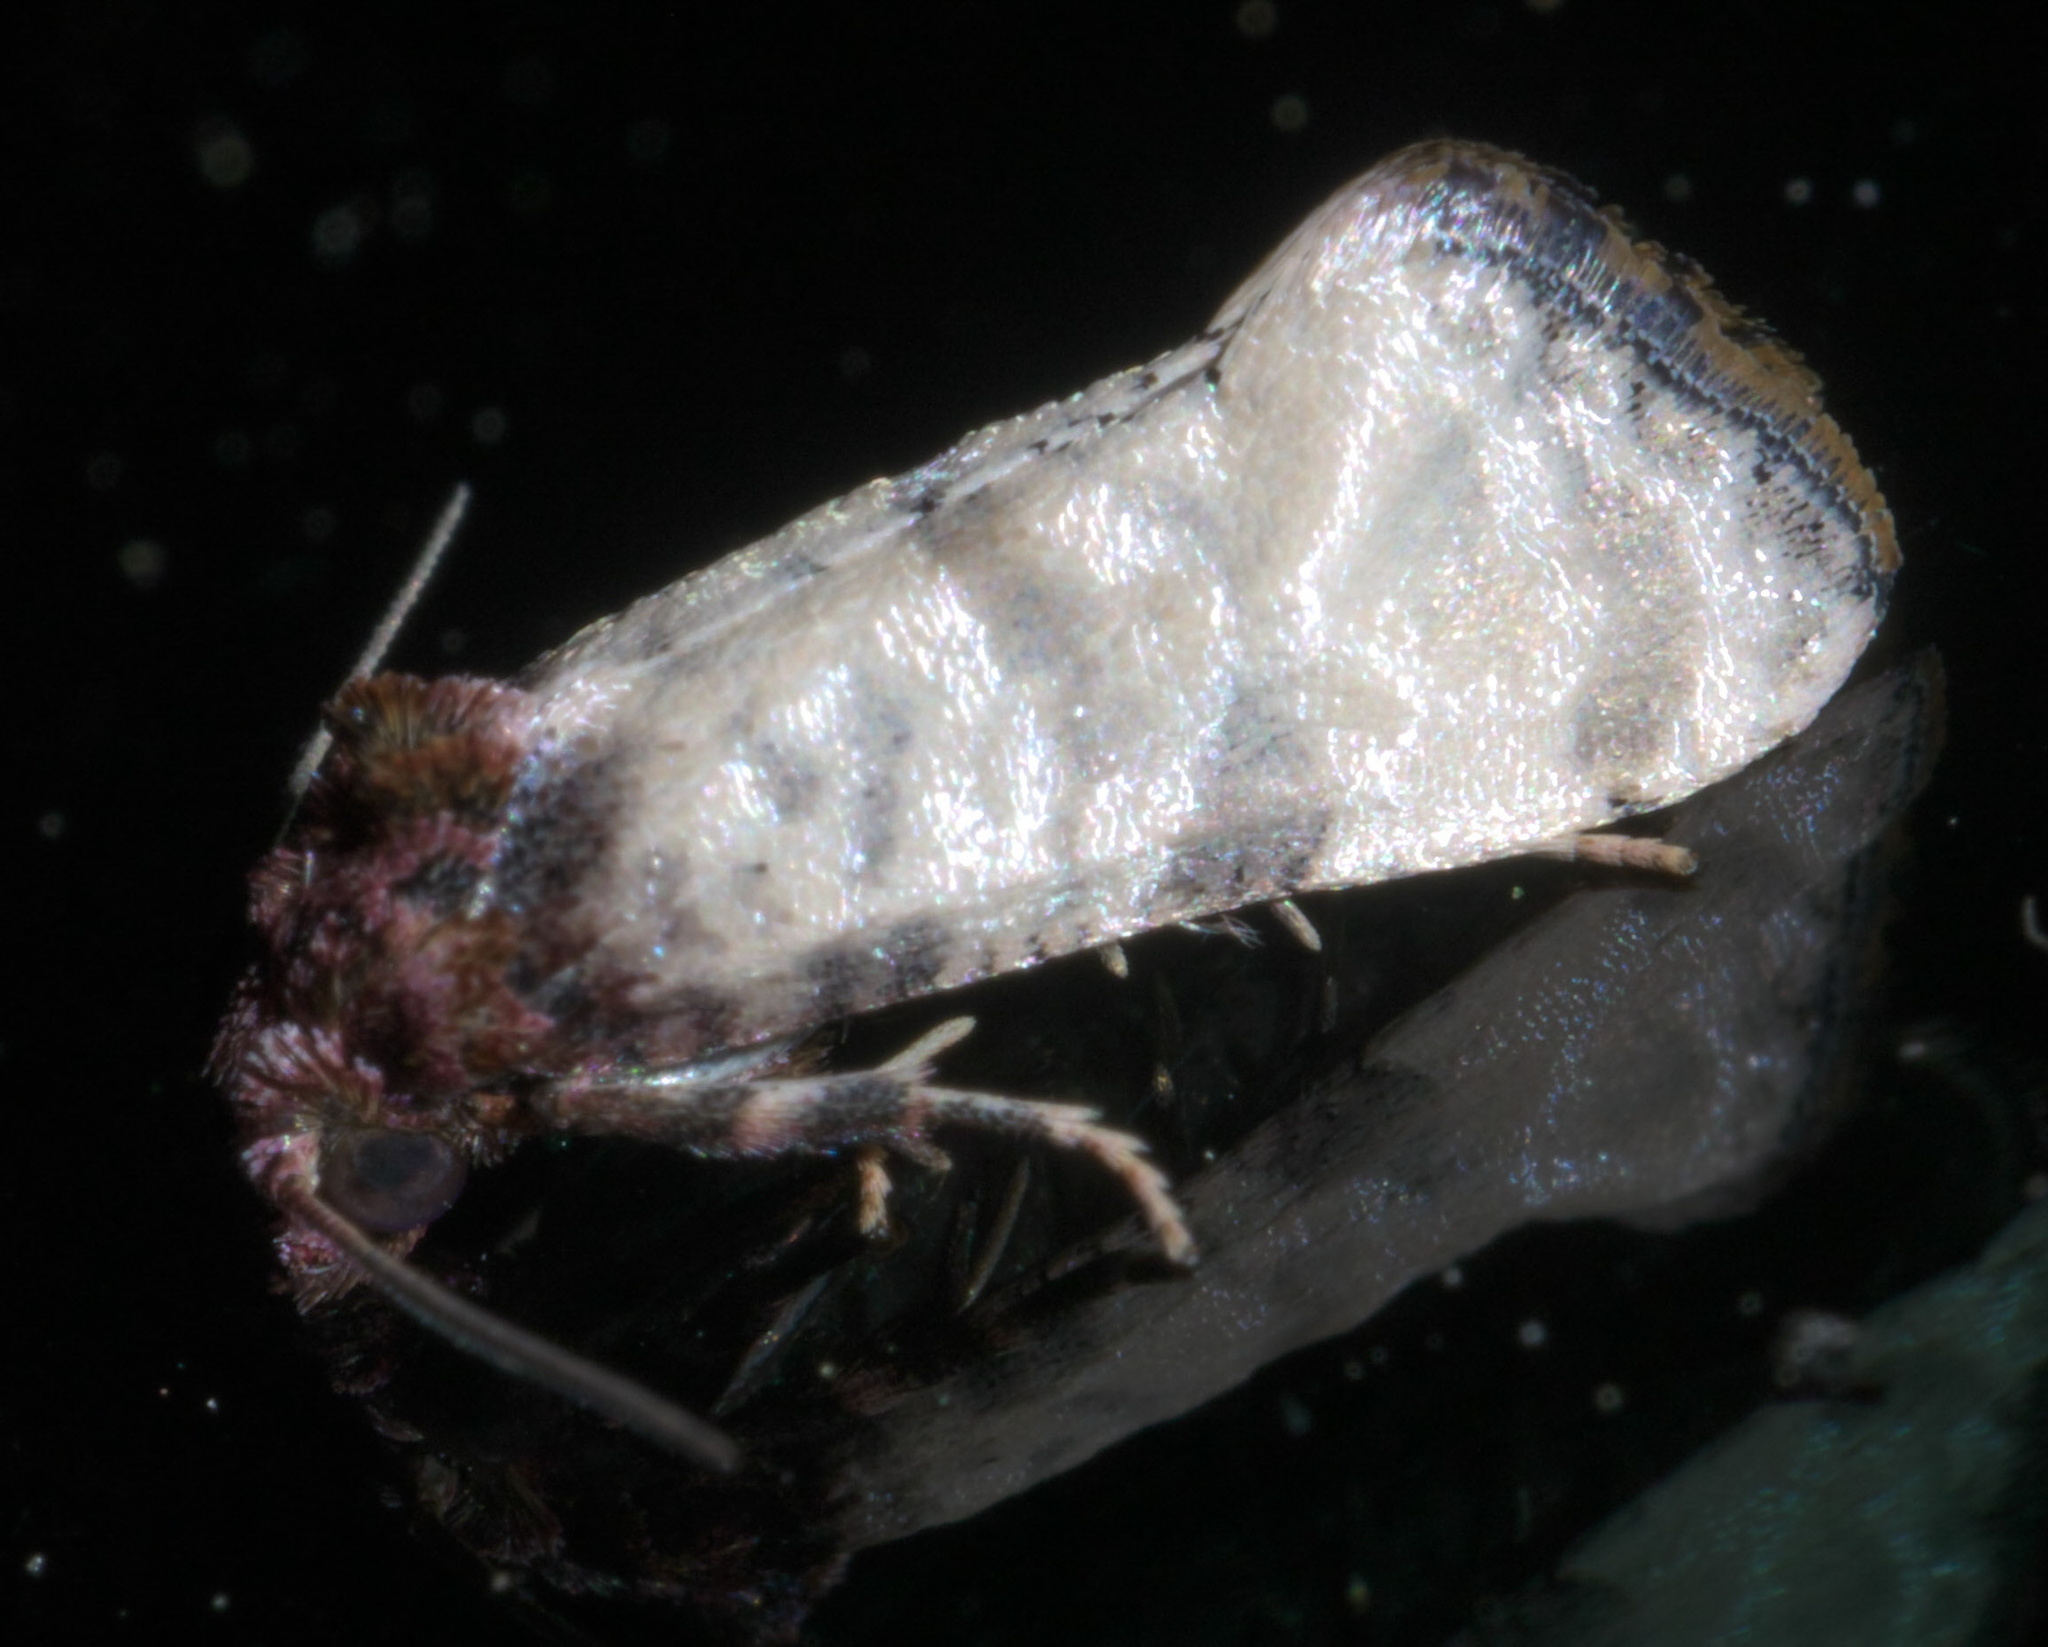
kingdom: Animalia
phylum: Arthropoda
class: Insecta
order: Lepidoptera
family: Tortricidae
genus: Phalonidia
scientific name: Phalonidia Platphalonidia lavana
